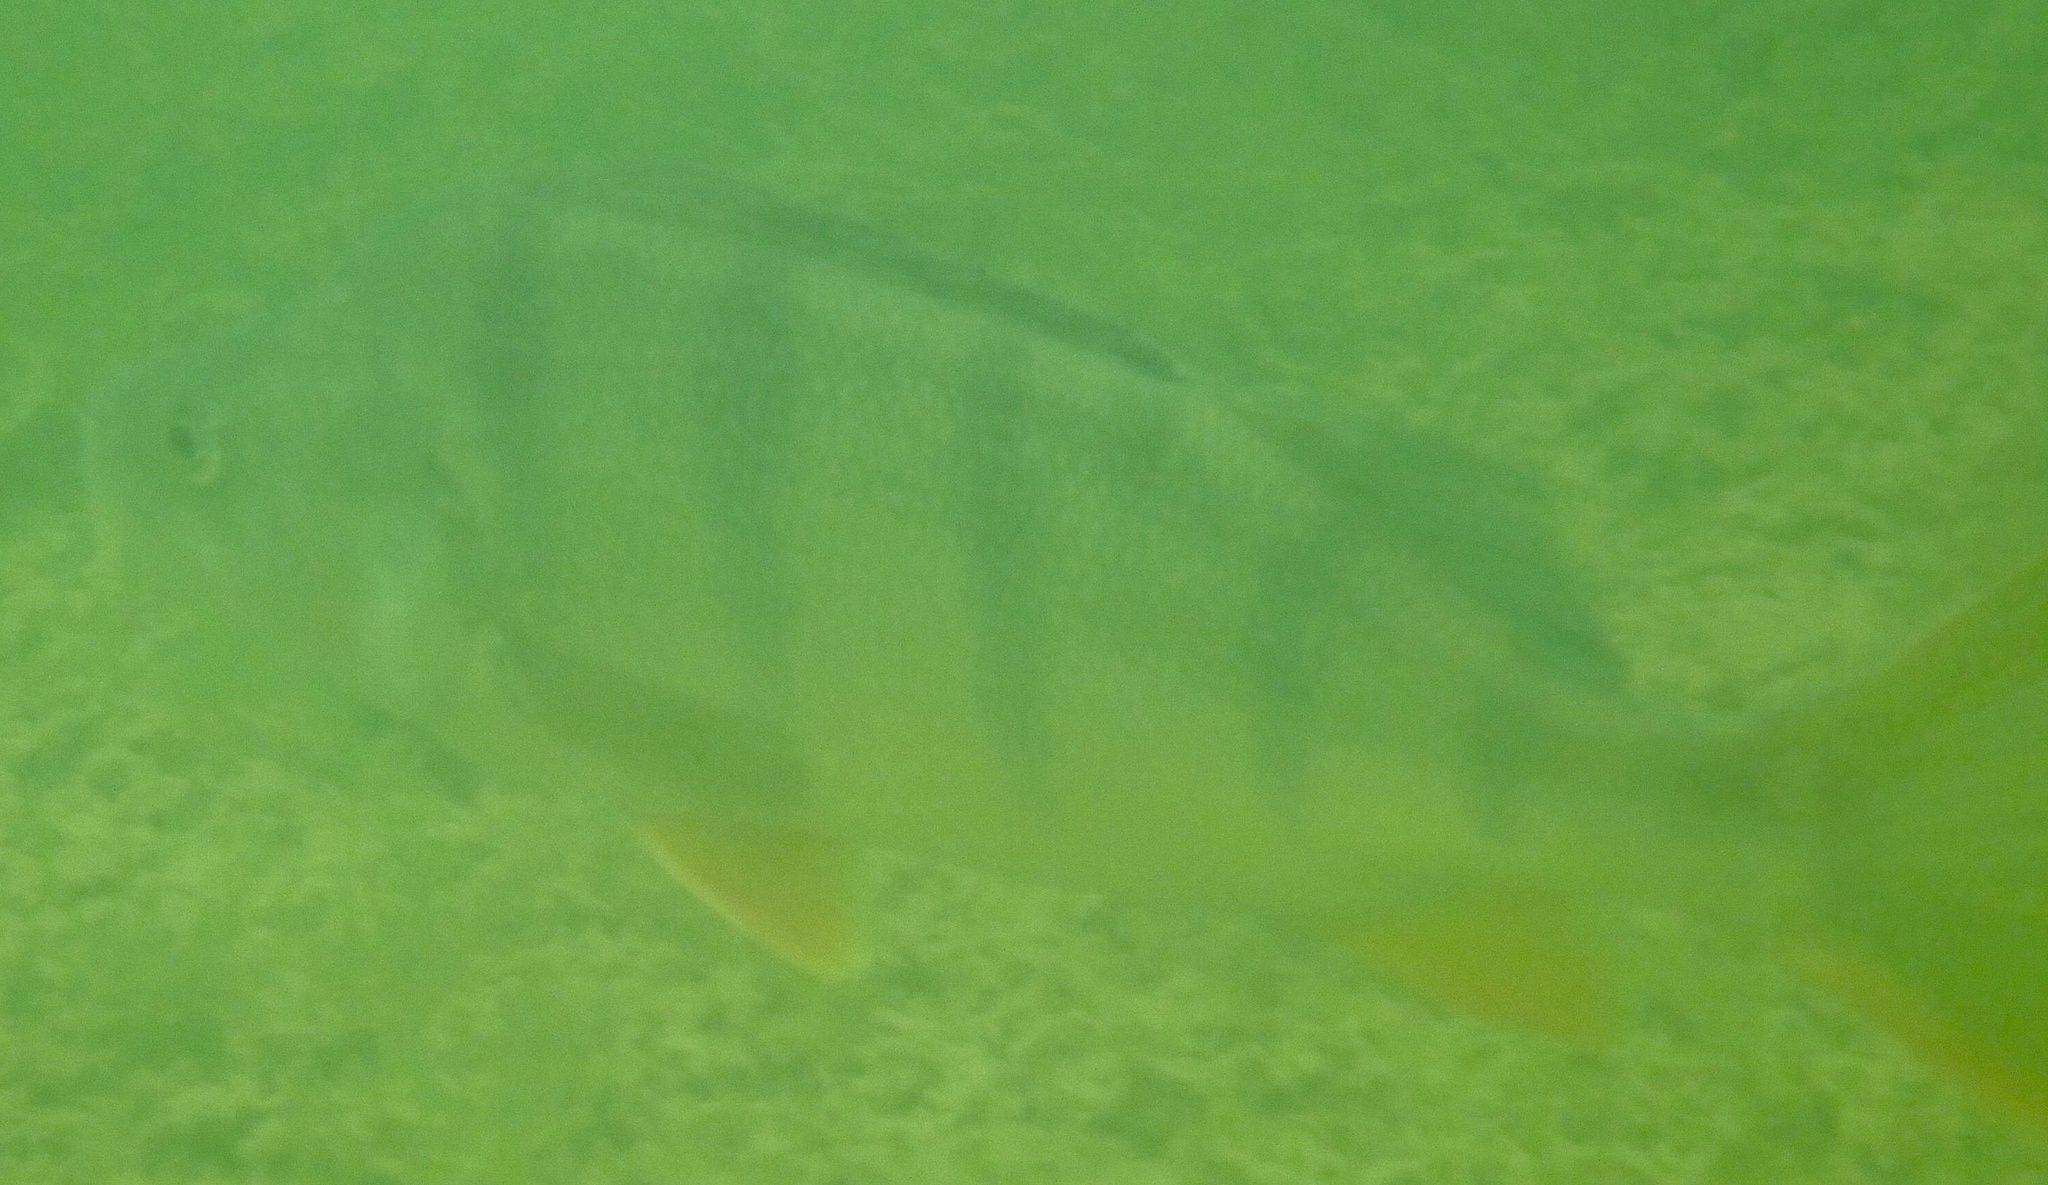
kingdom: Animalia
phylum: Chordata
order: Perciformes
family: Percidae
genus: Perca
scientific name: Perca fluviatilis
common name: Perch
